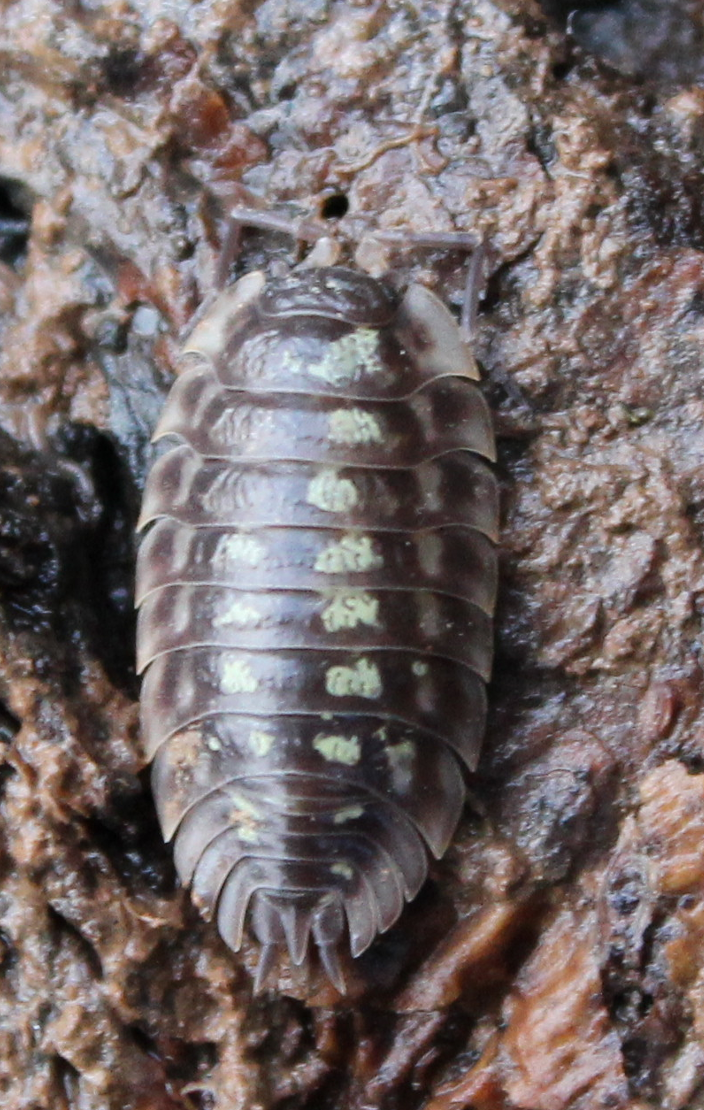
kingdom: Animalia
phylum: Arthropoda
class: Malacostraca
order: Isopoda
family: Oniscidae
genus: Oniscus
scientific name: Oniscus asellus
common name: Common shiny woodlouse
